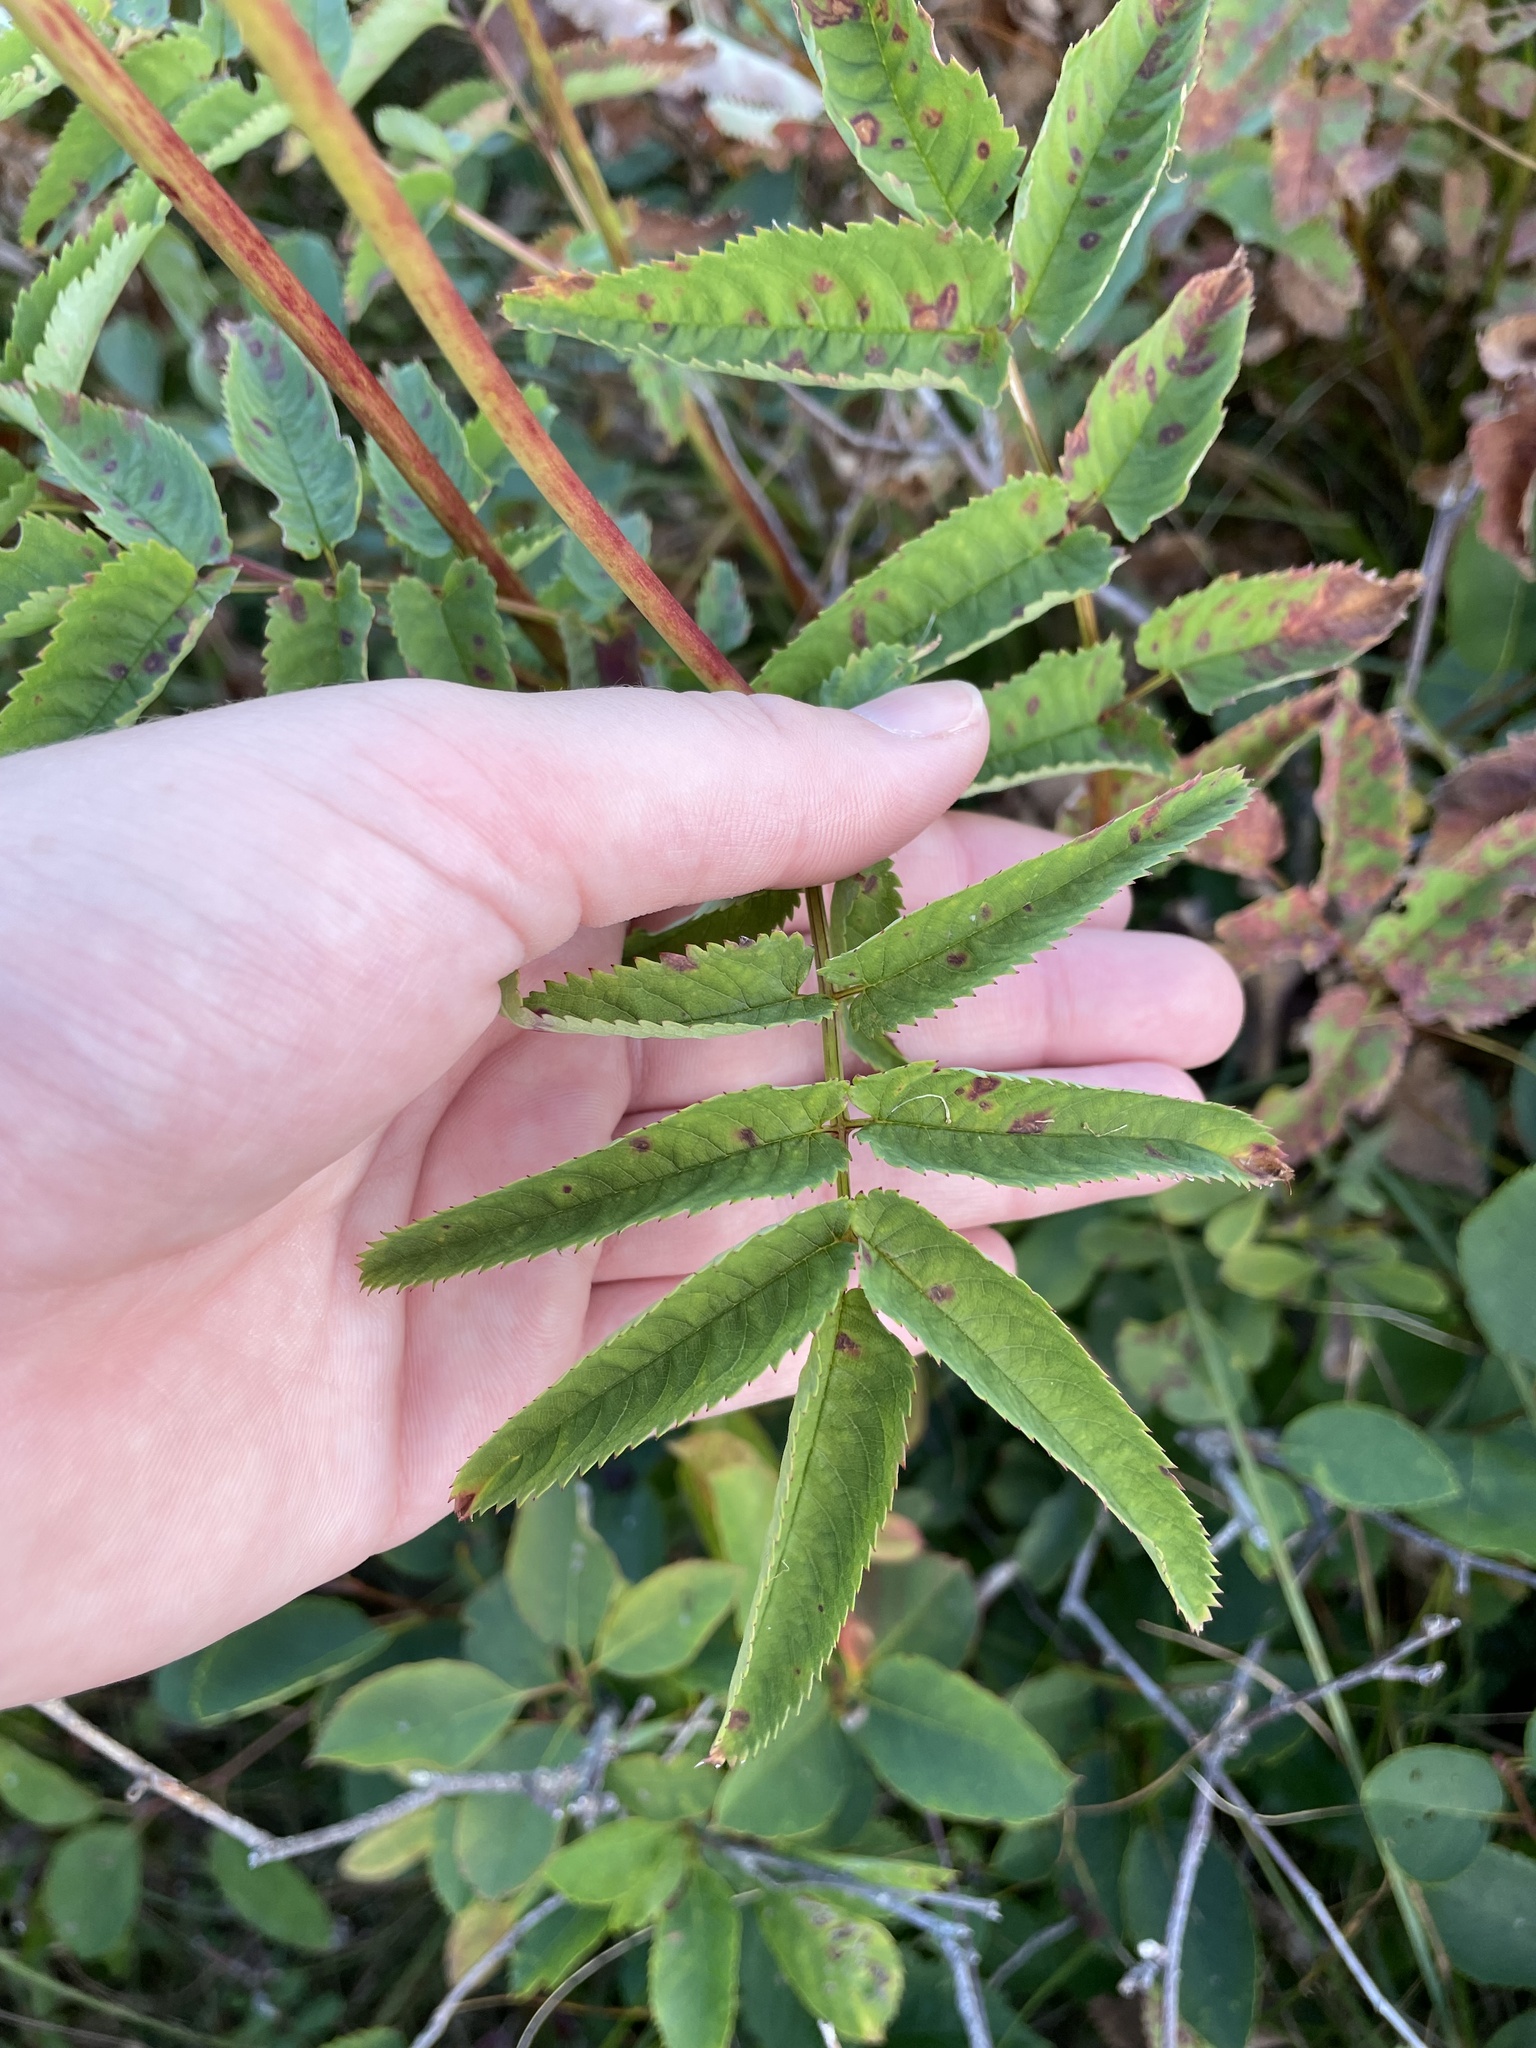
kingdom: Plantae
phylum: Tracheophyta
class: Magnoliopsida
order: Rosales
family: Rosaceae
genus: Sanguisorba
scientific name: Sanguisorba canadensis
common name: White burnet
